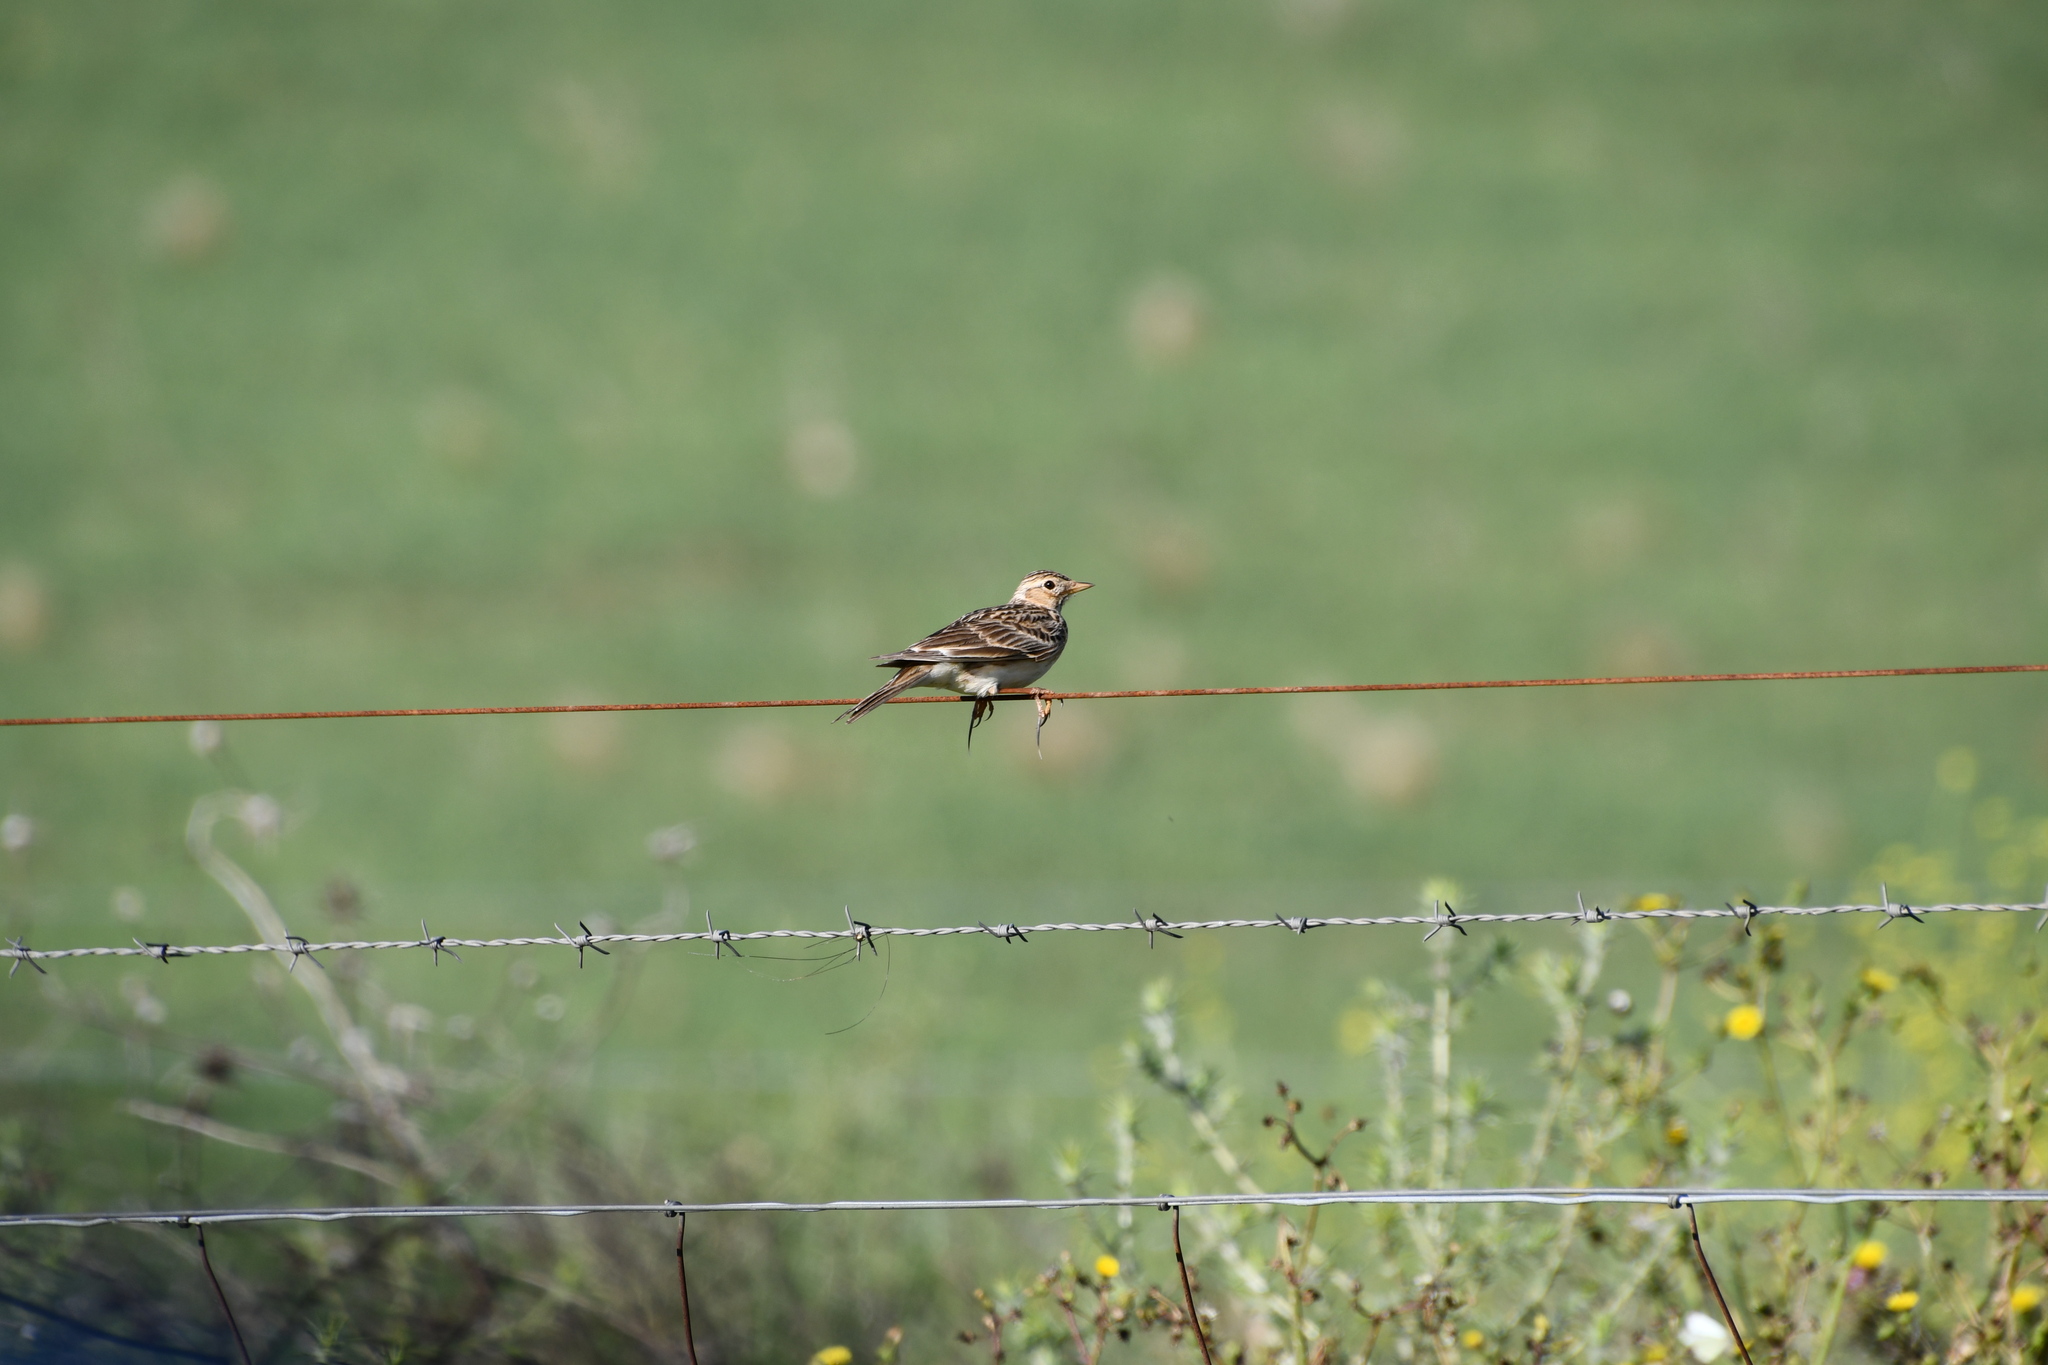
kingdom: Animalia
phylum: Chordata
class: Aves
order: Passeriformes
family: Motacillidae
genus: Anthus
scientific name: Anthus australis
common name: Australian pipit
